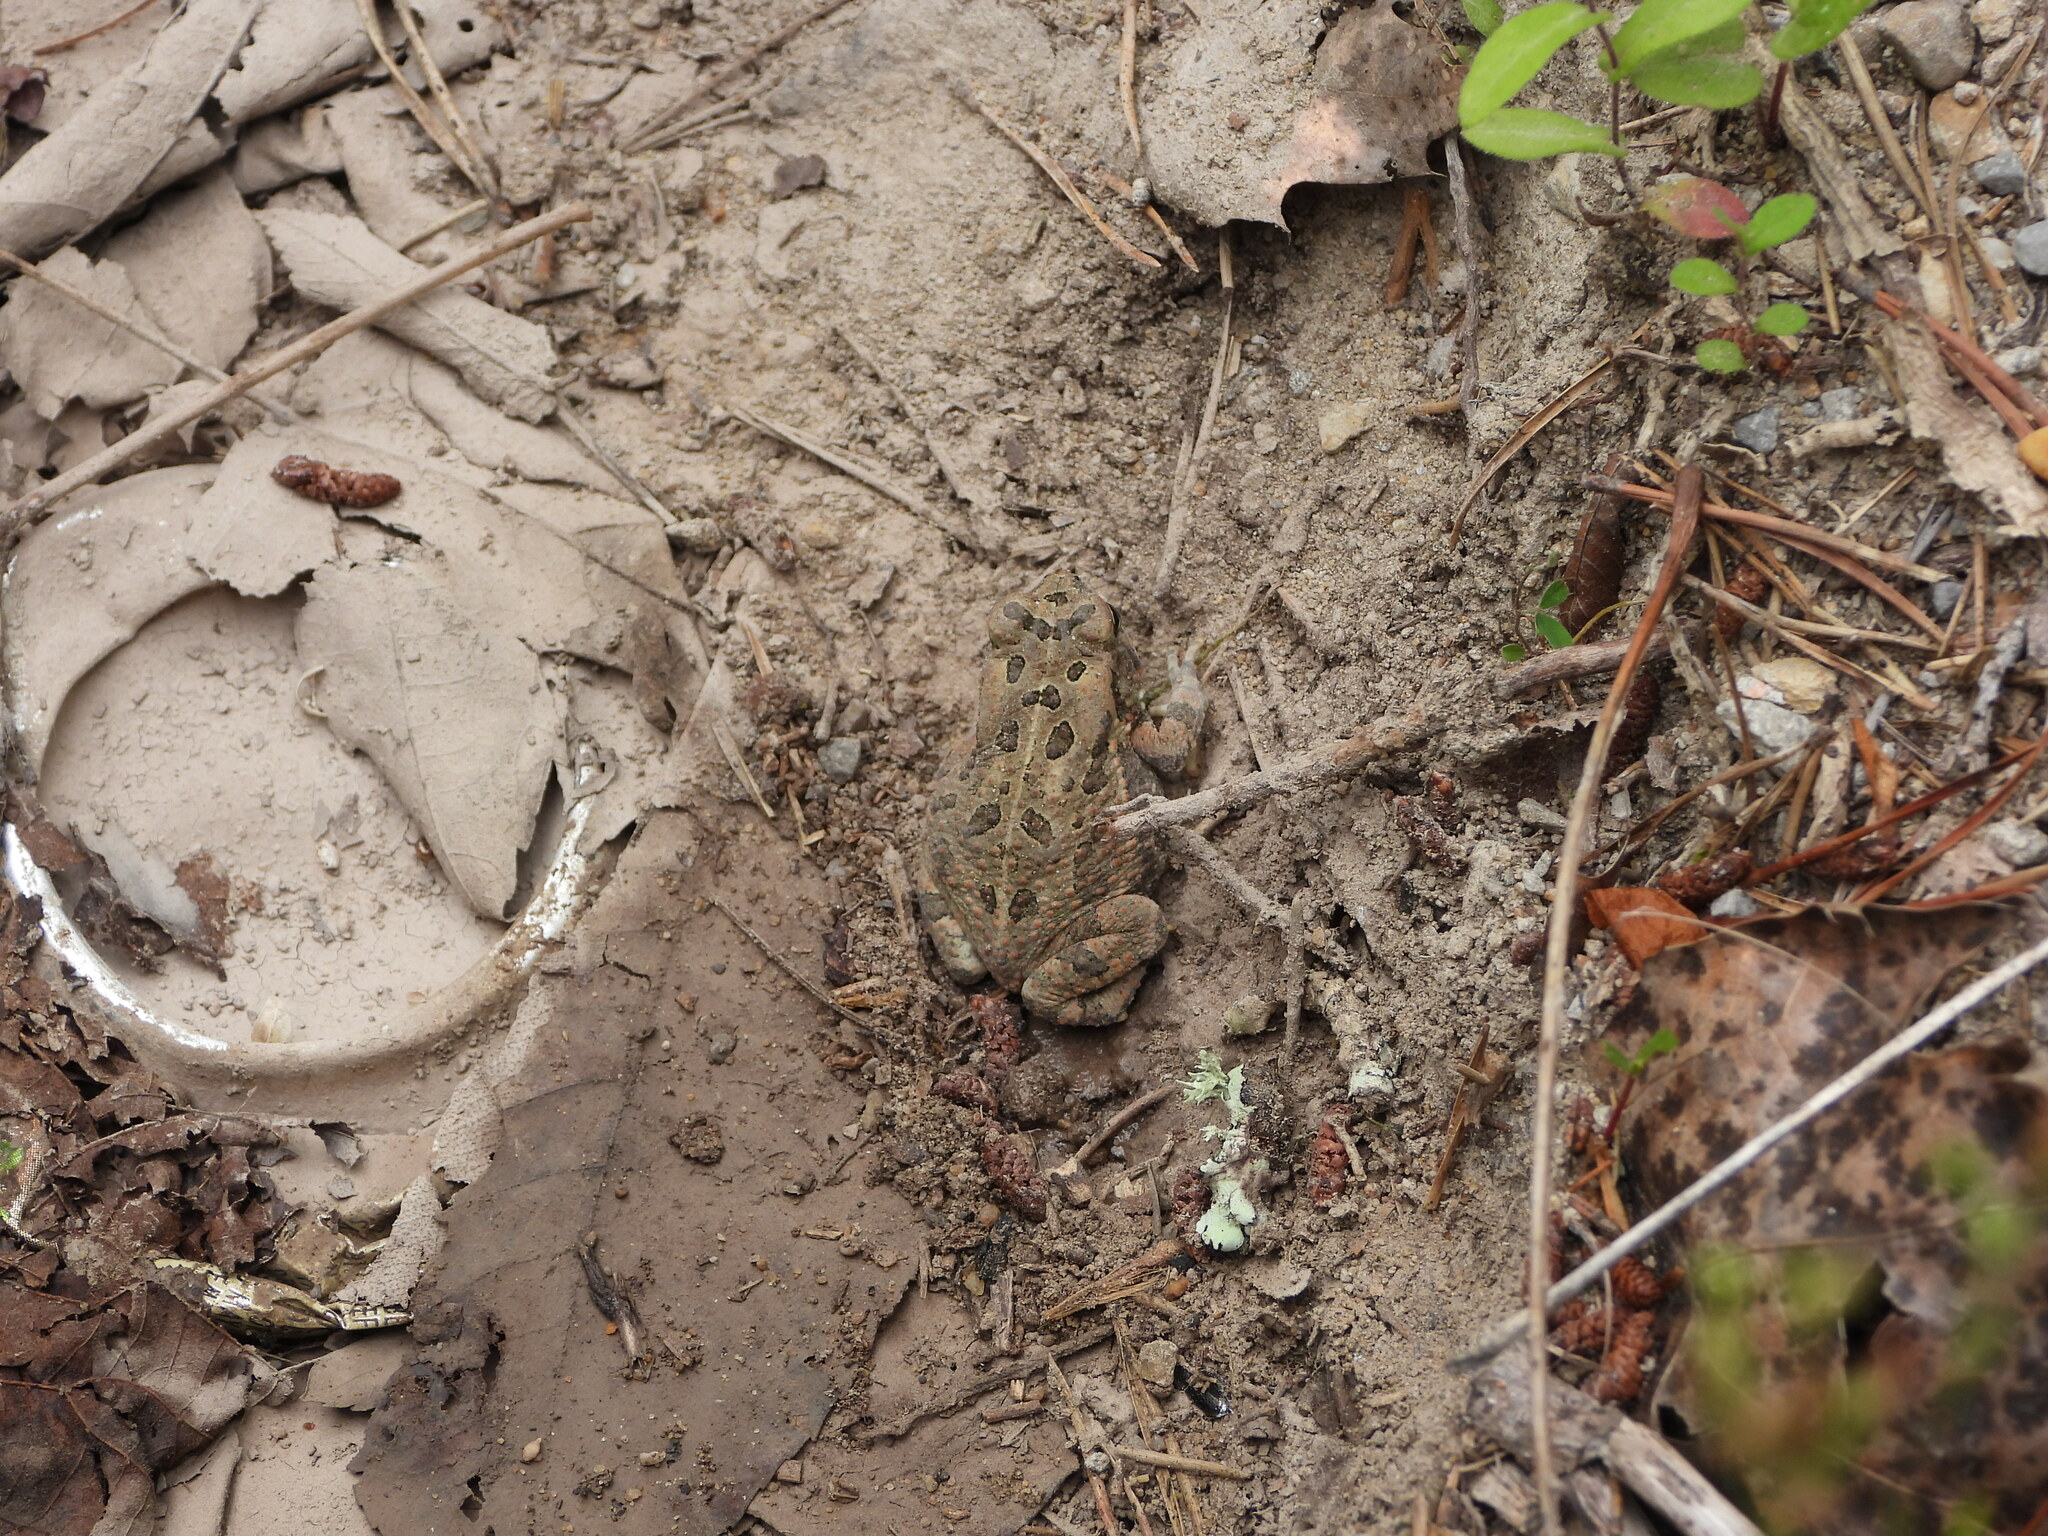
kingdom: Animalia
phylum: Chordata
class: Amphibia
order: Anura
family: Bufonidae
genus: Anaxyrus
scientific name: Anaxyrus fowleri
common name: Fowler's toad
